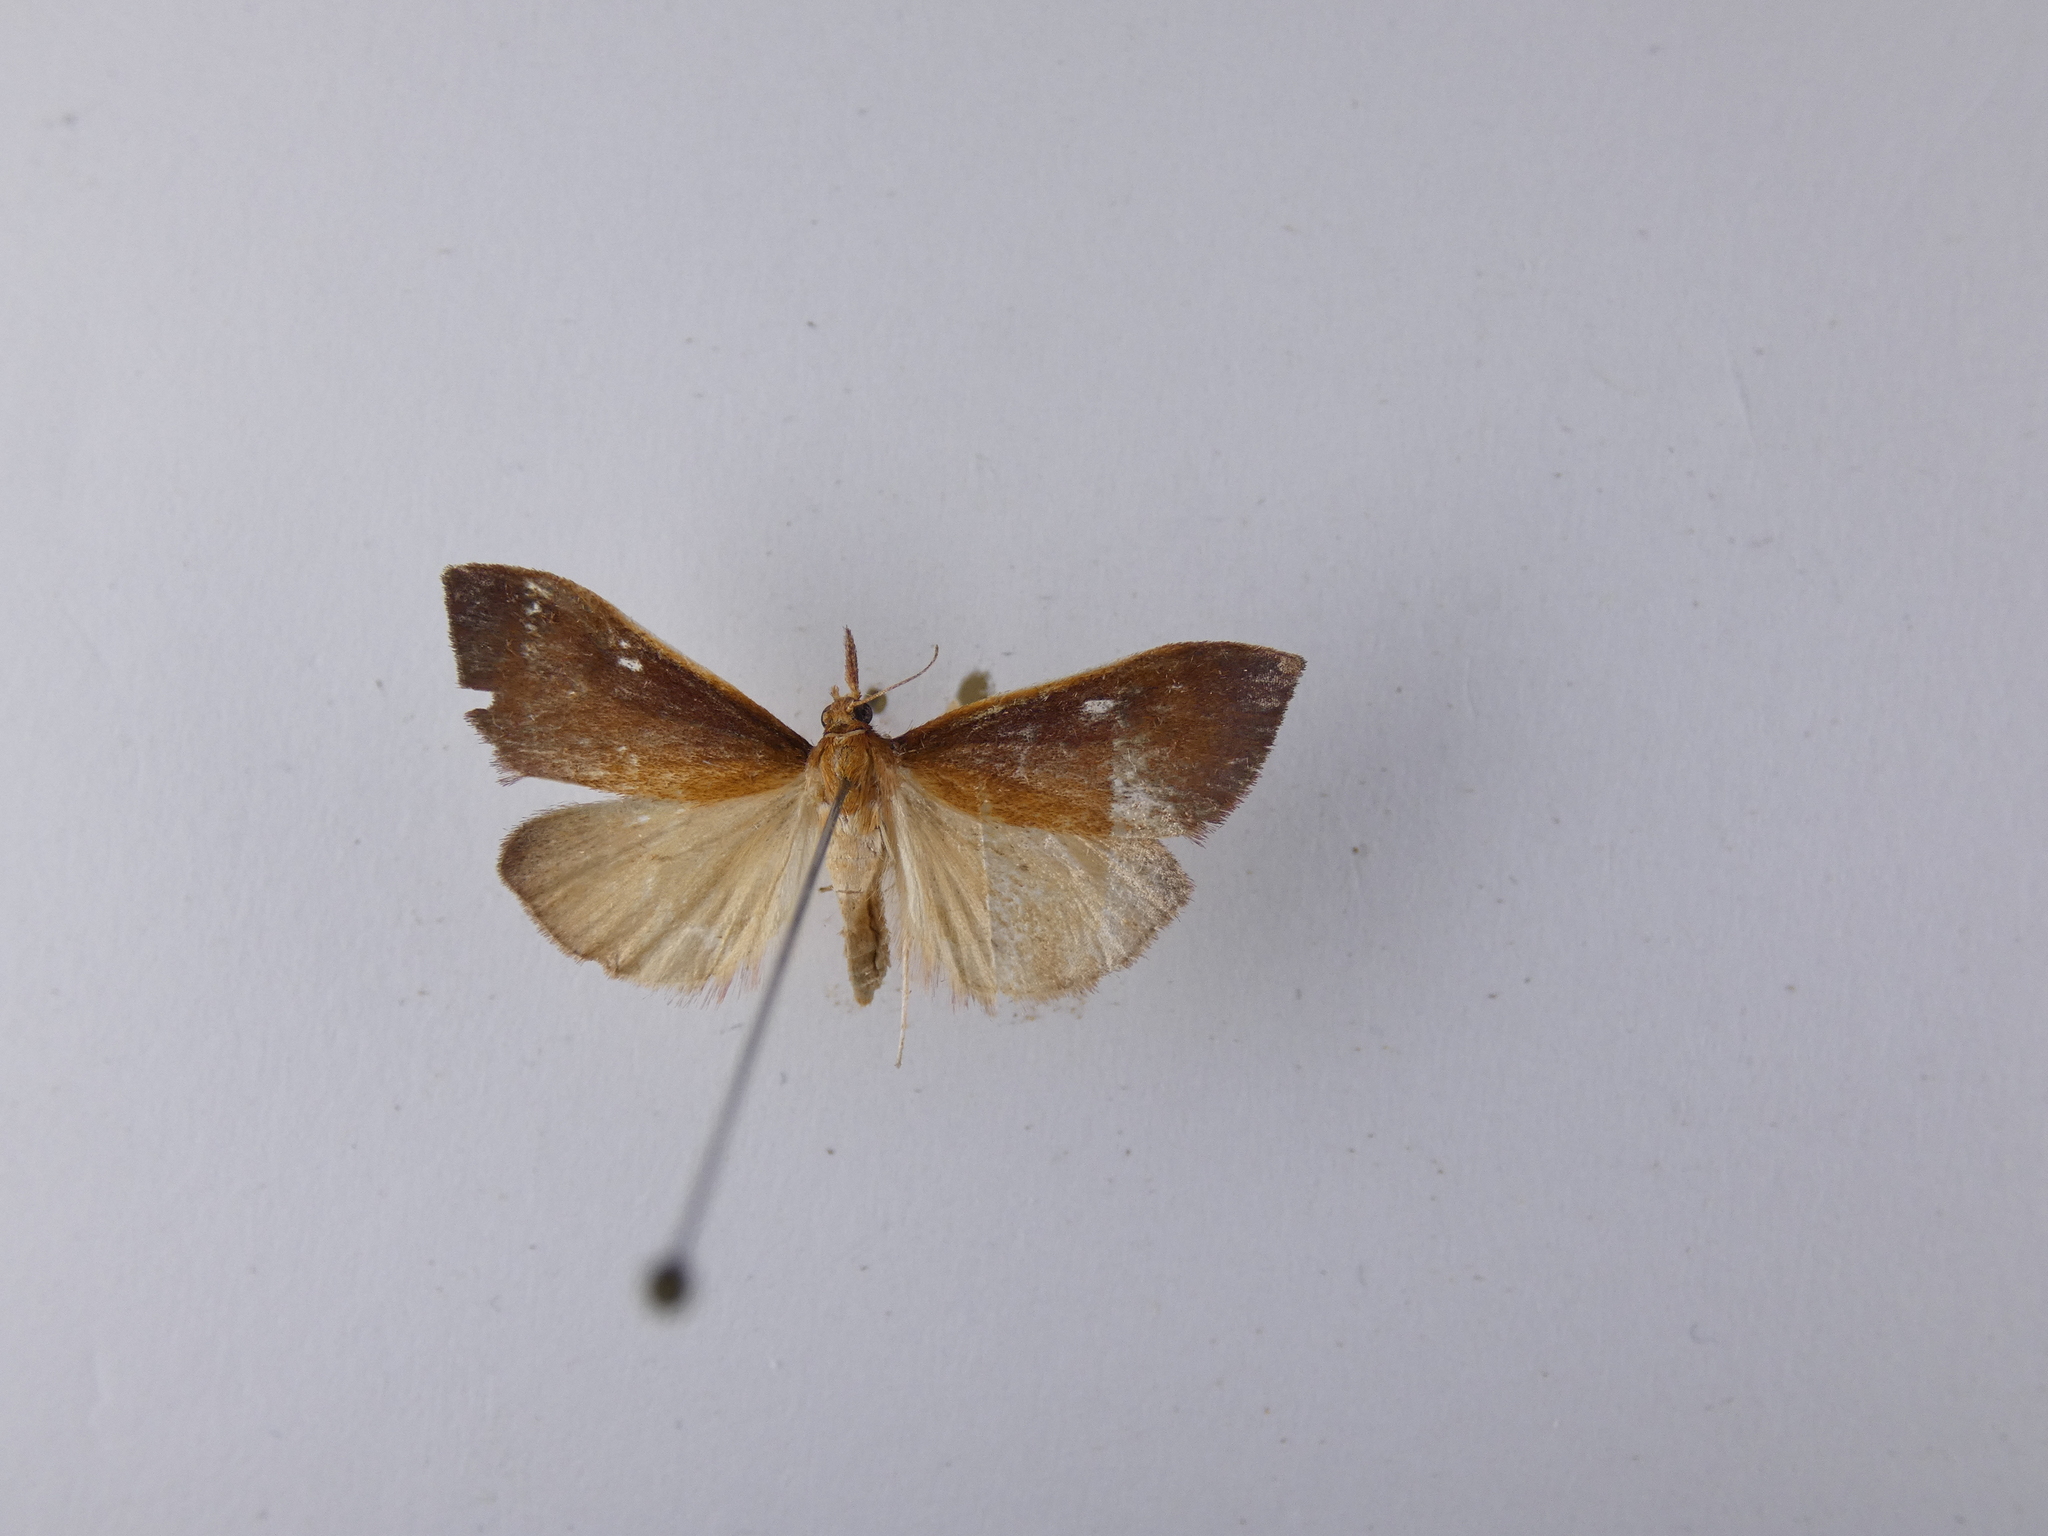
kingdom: Animalia
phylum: Arthropoda
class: Insecta
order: Lepidoptera
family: Crambidae
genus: Udea
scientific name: Udea daiclesalis
